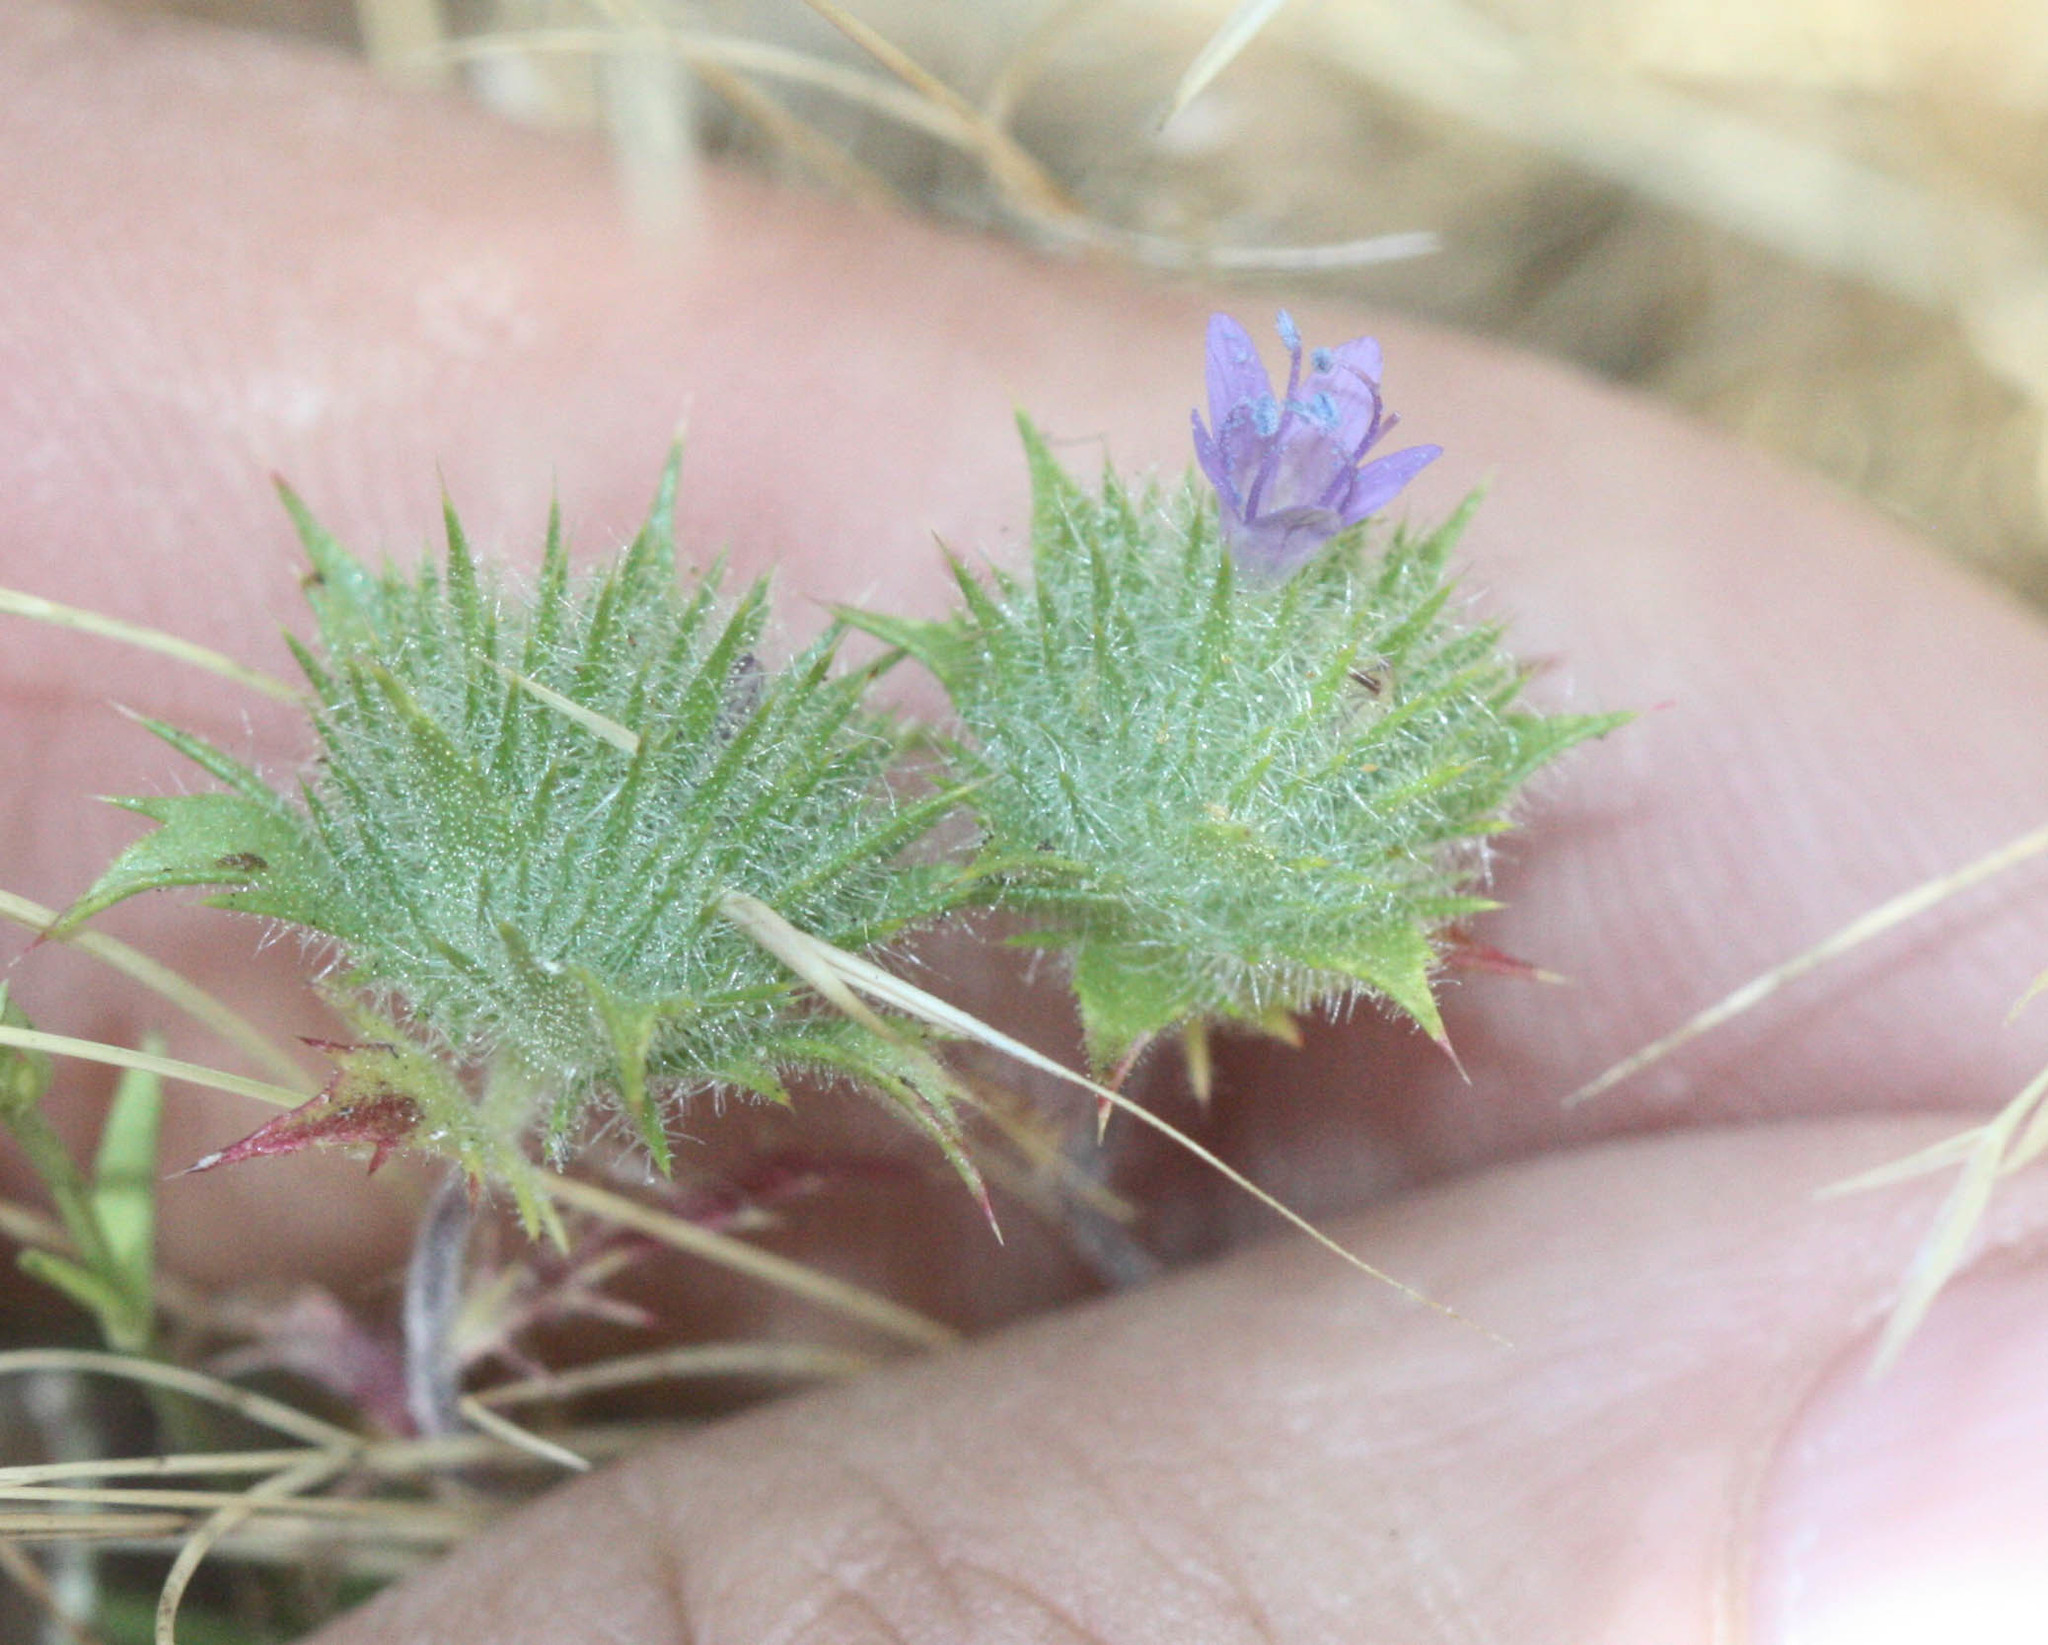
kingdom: Plantae
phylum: Tracheophyta
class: Magnoliopsida
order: Ericales
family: Polemoniaceae
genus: Navarretia
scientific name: Navarretia heterodoxa
